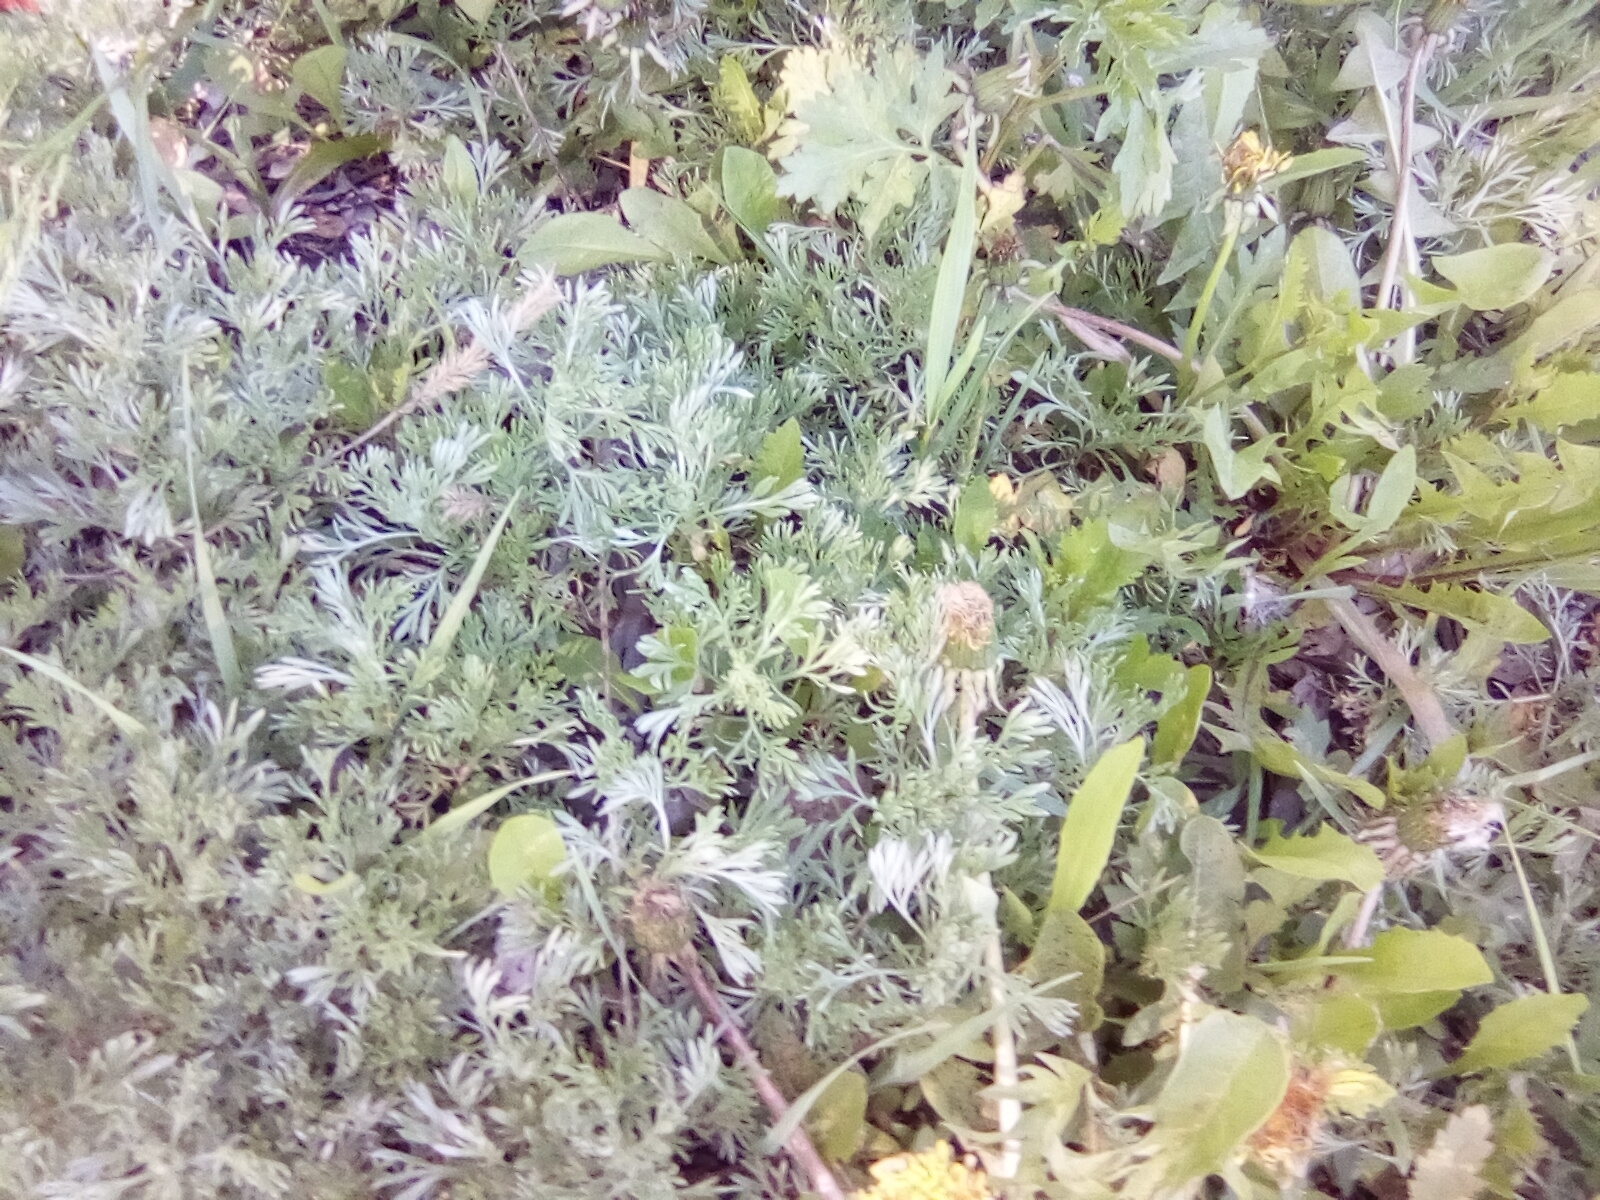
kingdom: Plantae
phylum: Tracheophyta
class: Magnoliopsida
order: Asterales
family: Asteraceae
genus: Artemisia
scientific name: Artemisia austriaca
